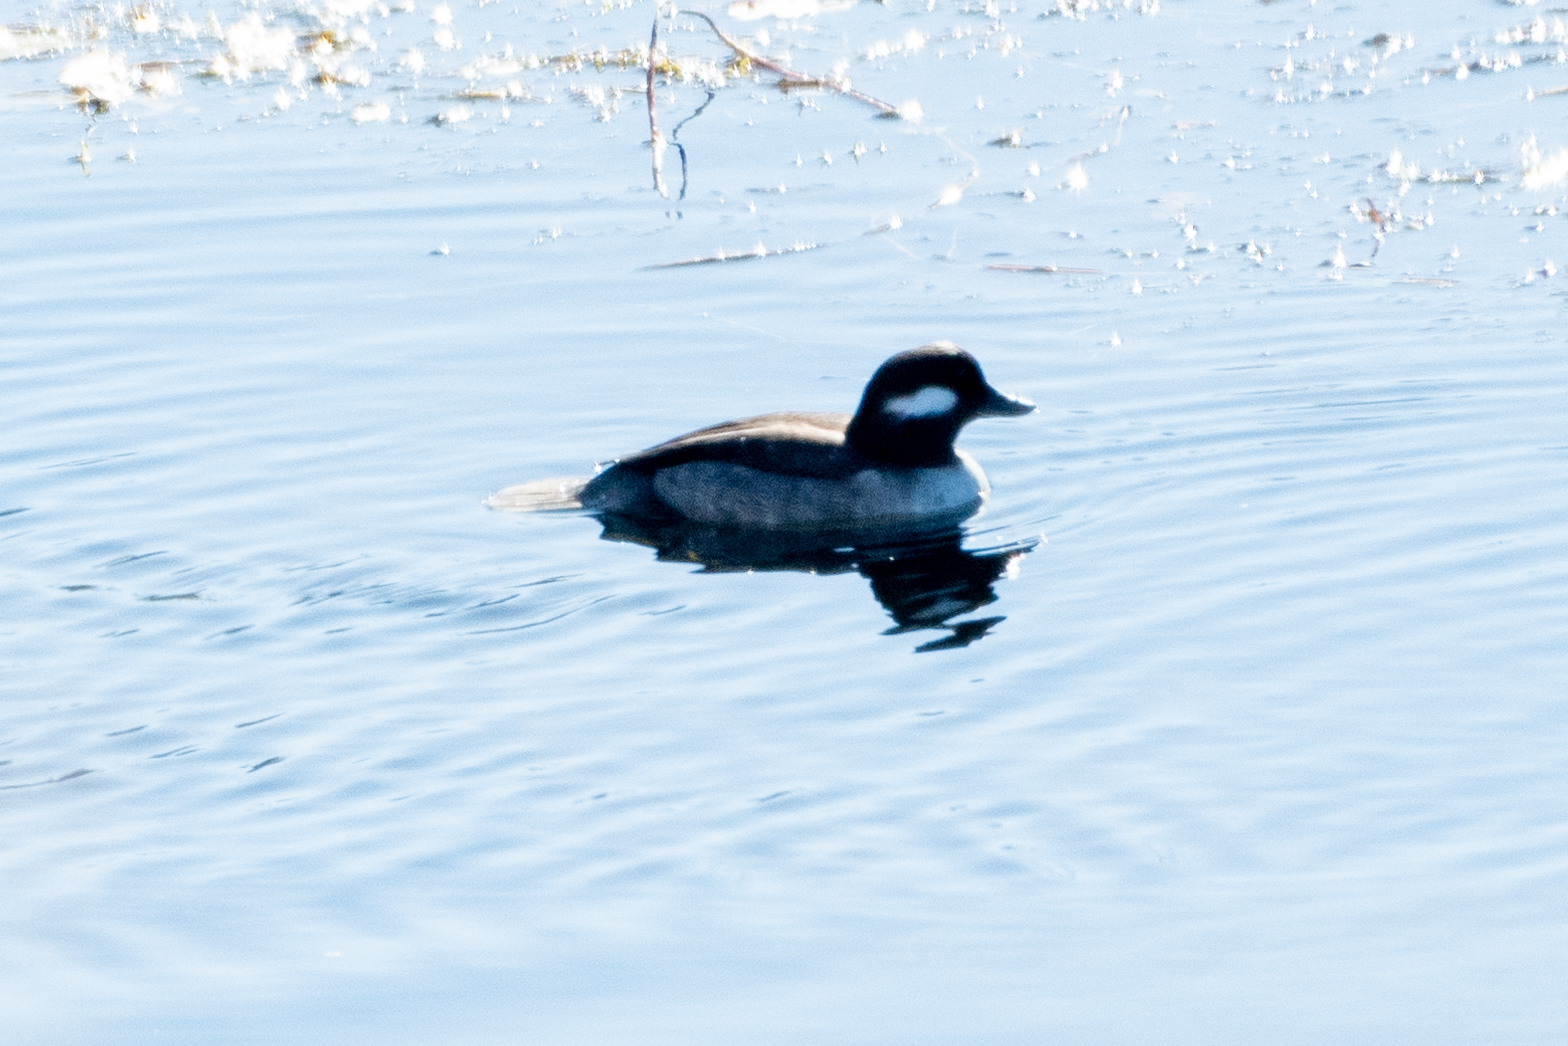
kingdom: Animalia
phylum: Chordata
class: Aves
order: Anseriformes
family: Anatidae
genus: Bucephala
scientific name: Bucephala albeola
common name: Bufflehead
